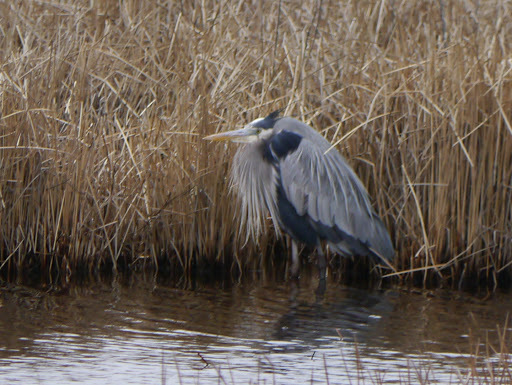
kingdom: Animalia
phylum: Chordata
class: Aves
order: Pelecaniformes
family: Ardeidae
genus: Ardea
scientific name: Ardea herodias
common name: Great blue heron
